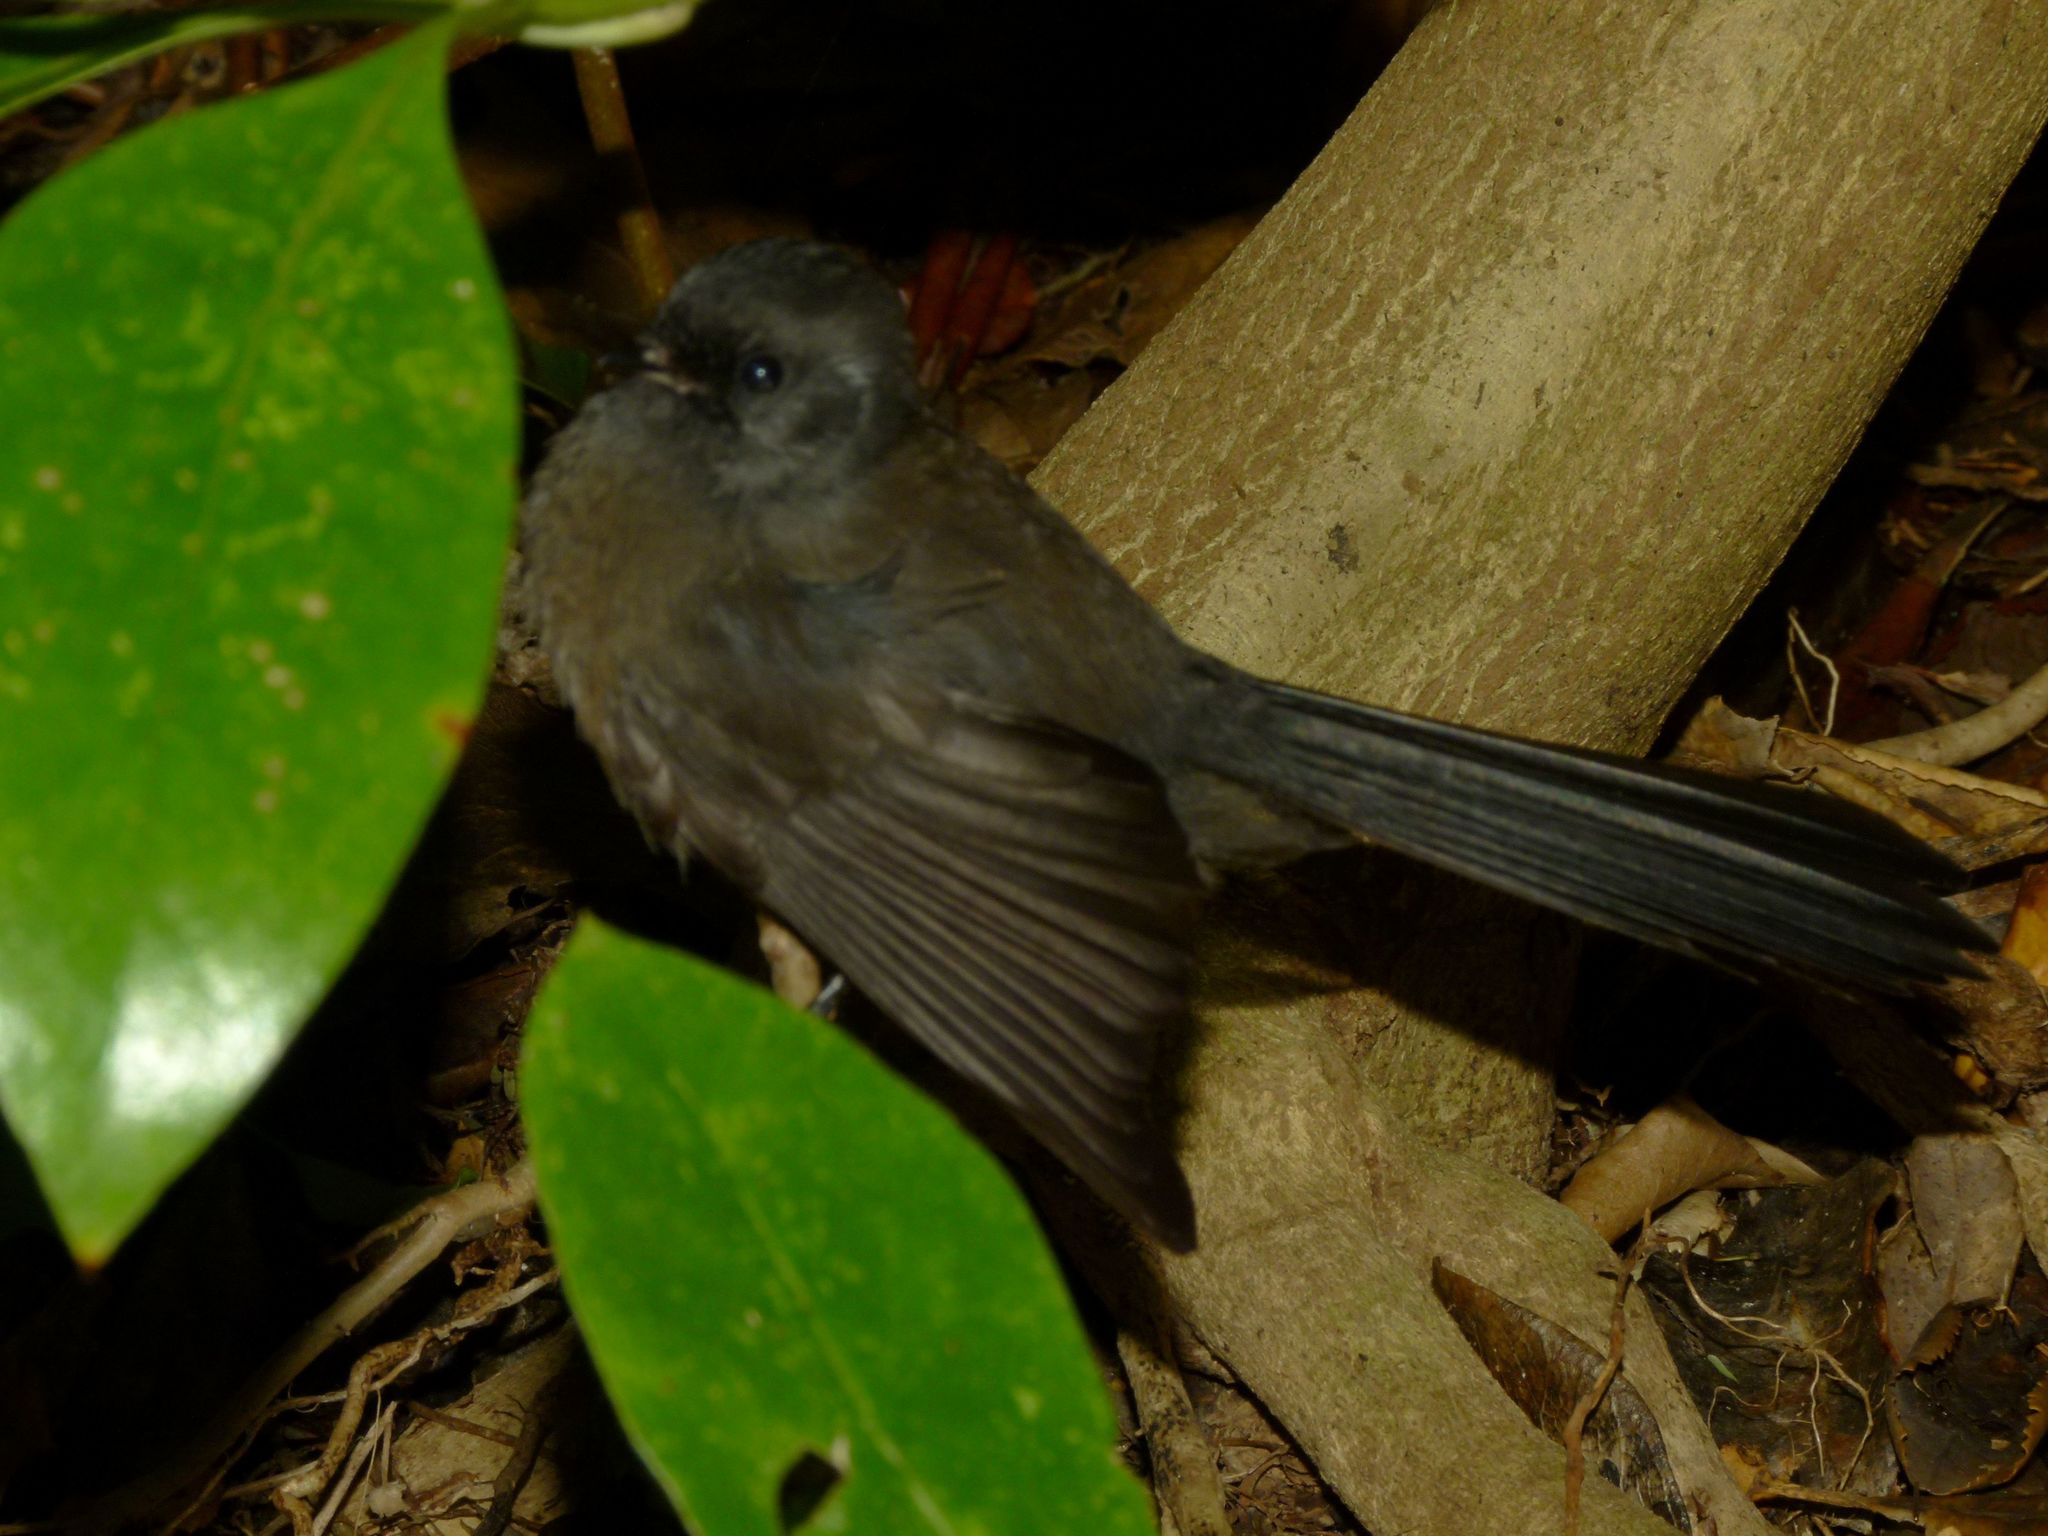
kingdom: Animalia
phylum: Chordata
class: Aves
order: Passeriformes
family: Rhipiduridae
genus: Rhipidura
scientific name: Rhipidura fuliginosa
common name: New zealand fantail
